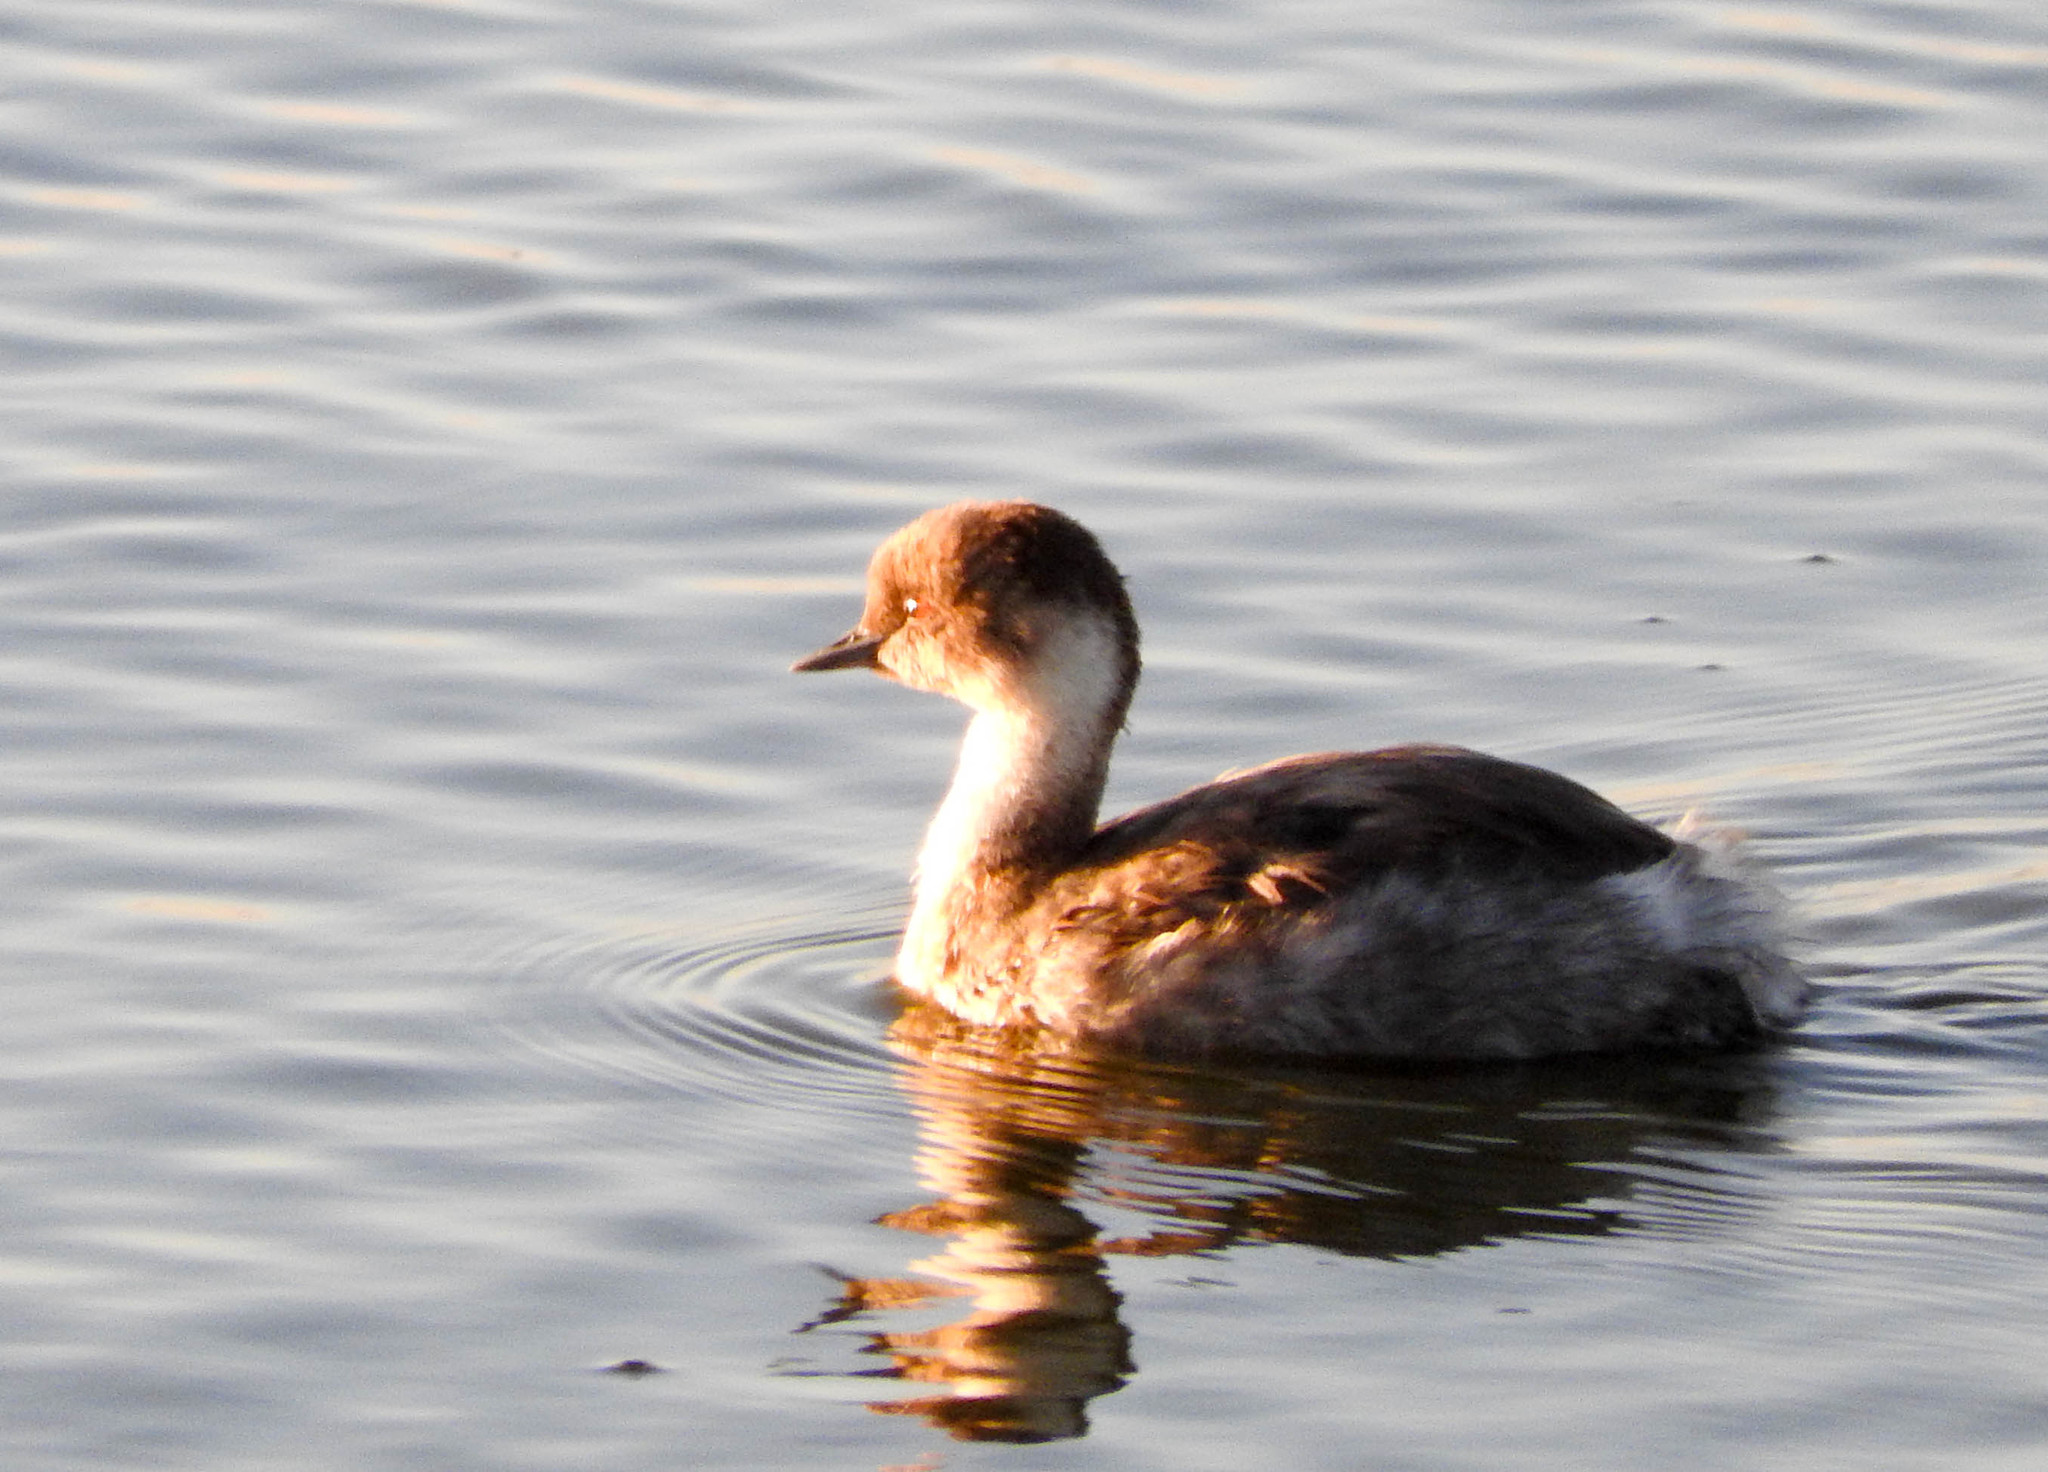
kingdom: Animalia
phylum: Chordata
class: Aves
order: Podicipediformes
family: Podicipedidae
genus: Podiceps
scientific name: Podiceps occipitalis
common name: Silvery grebe
